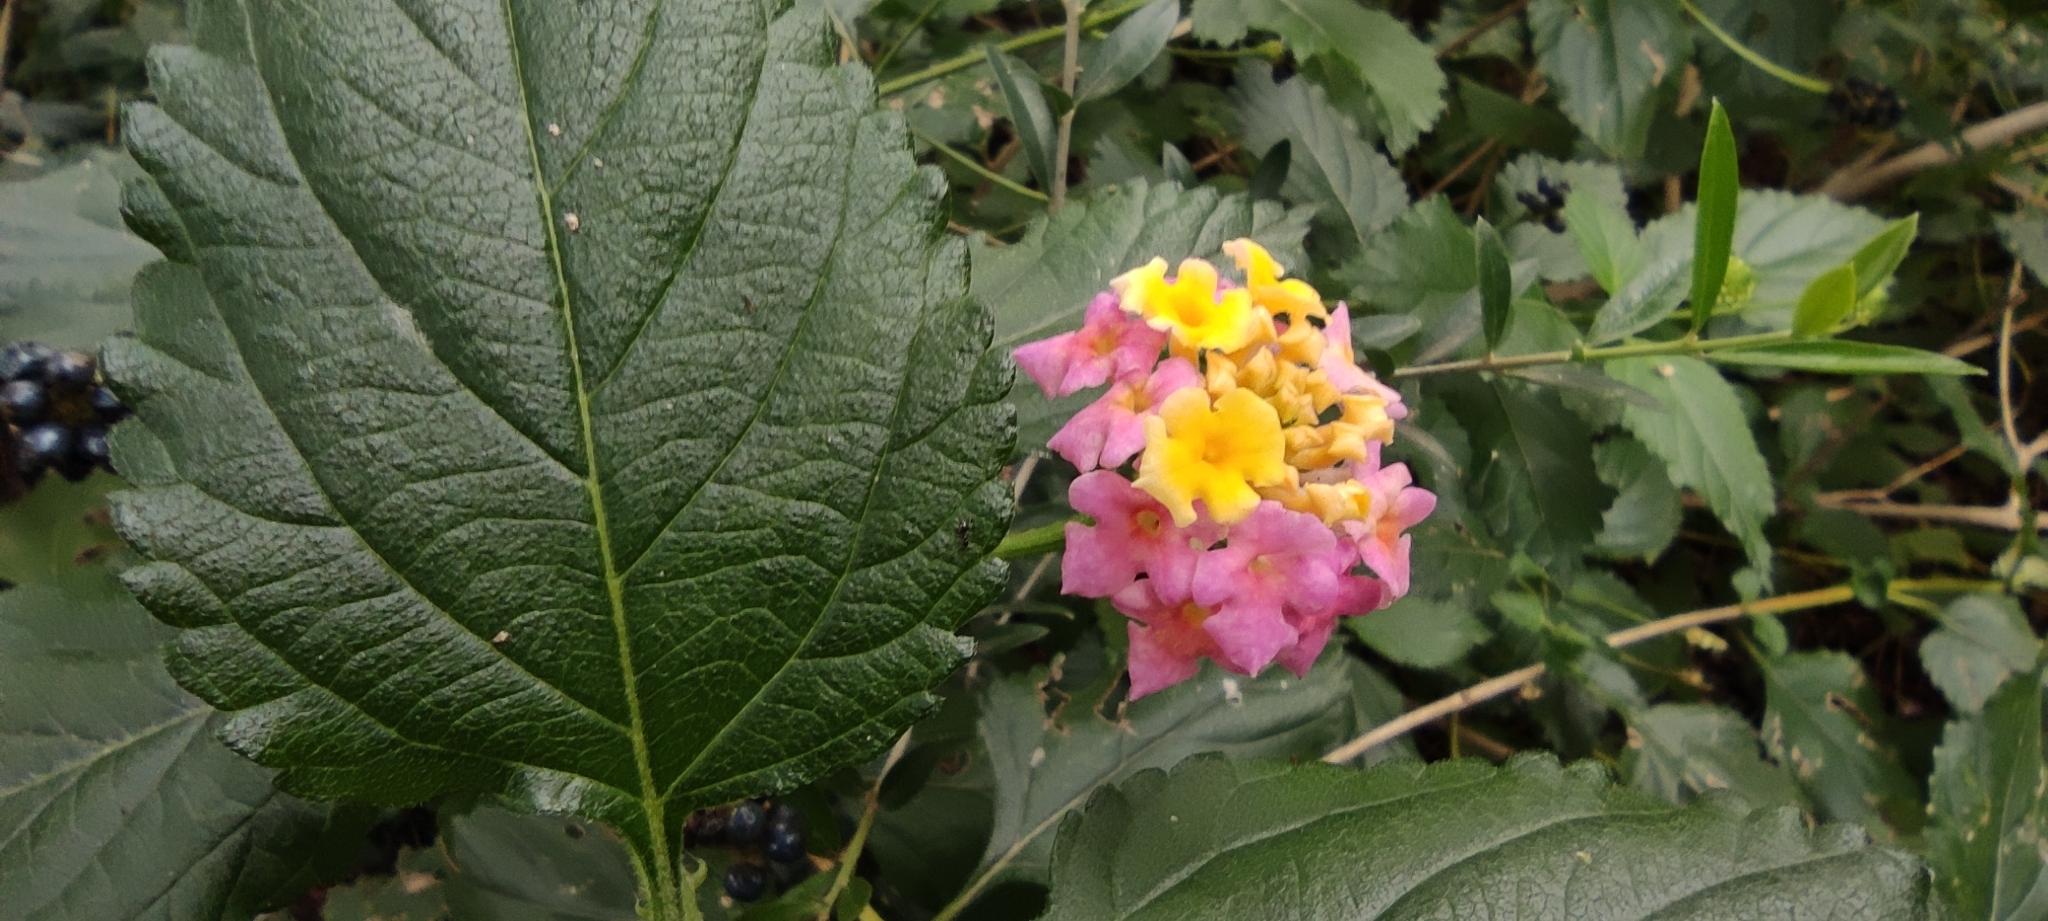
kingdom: Plantae
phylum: Tracheophyta
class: Magnoliopsida
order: Lamiales
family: Verbenaceae
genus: Lantana
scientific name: Lantana camara
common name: Lantana
